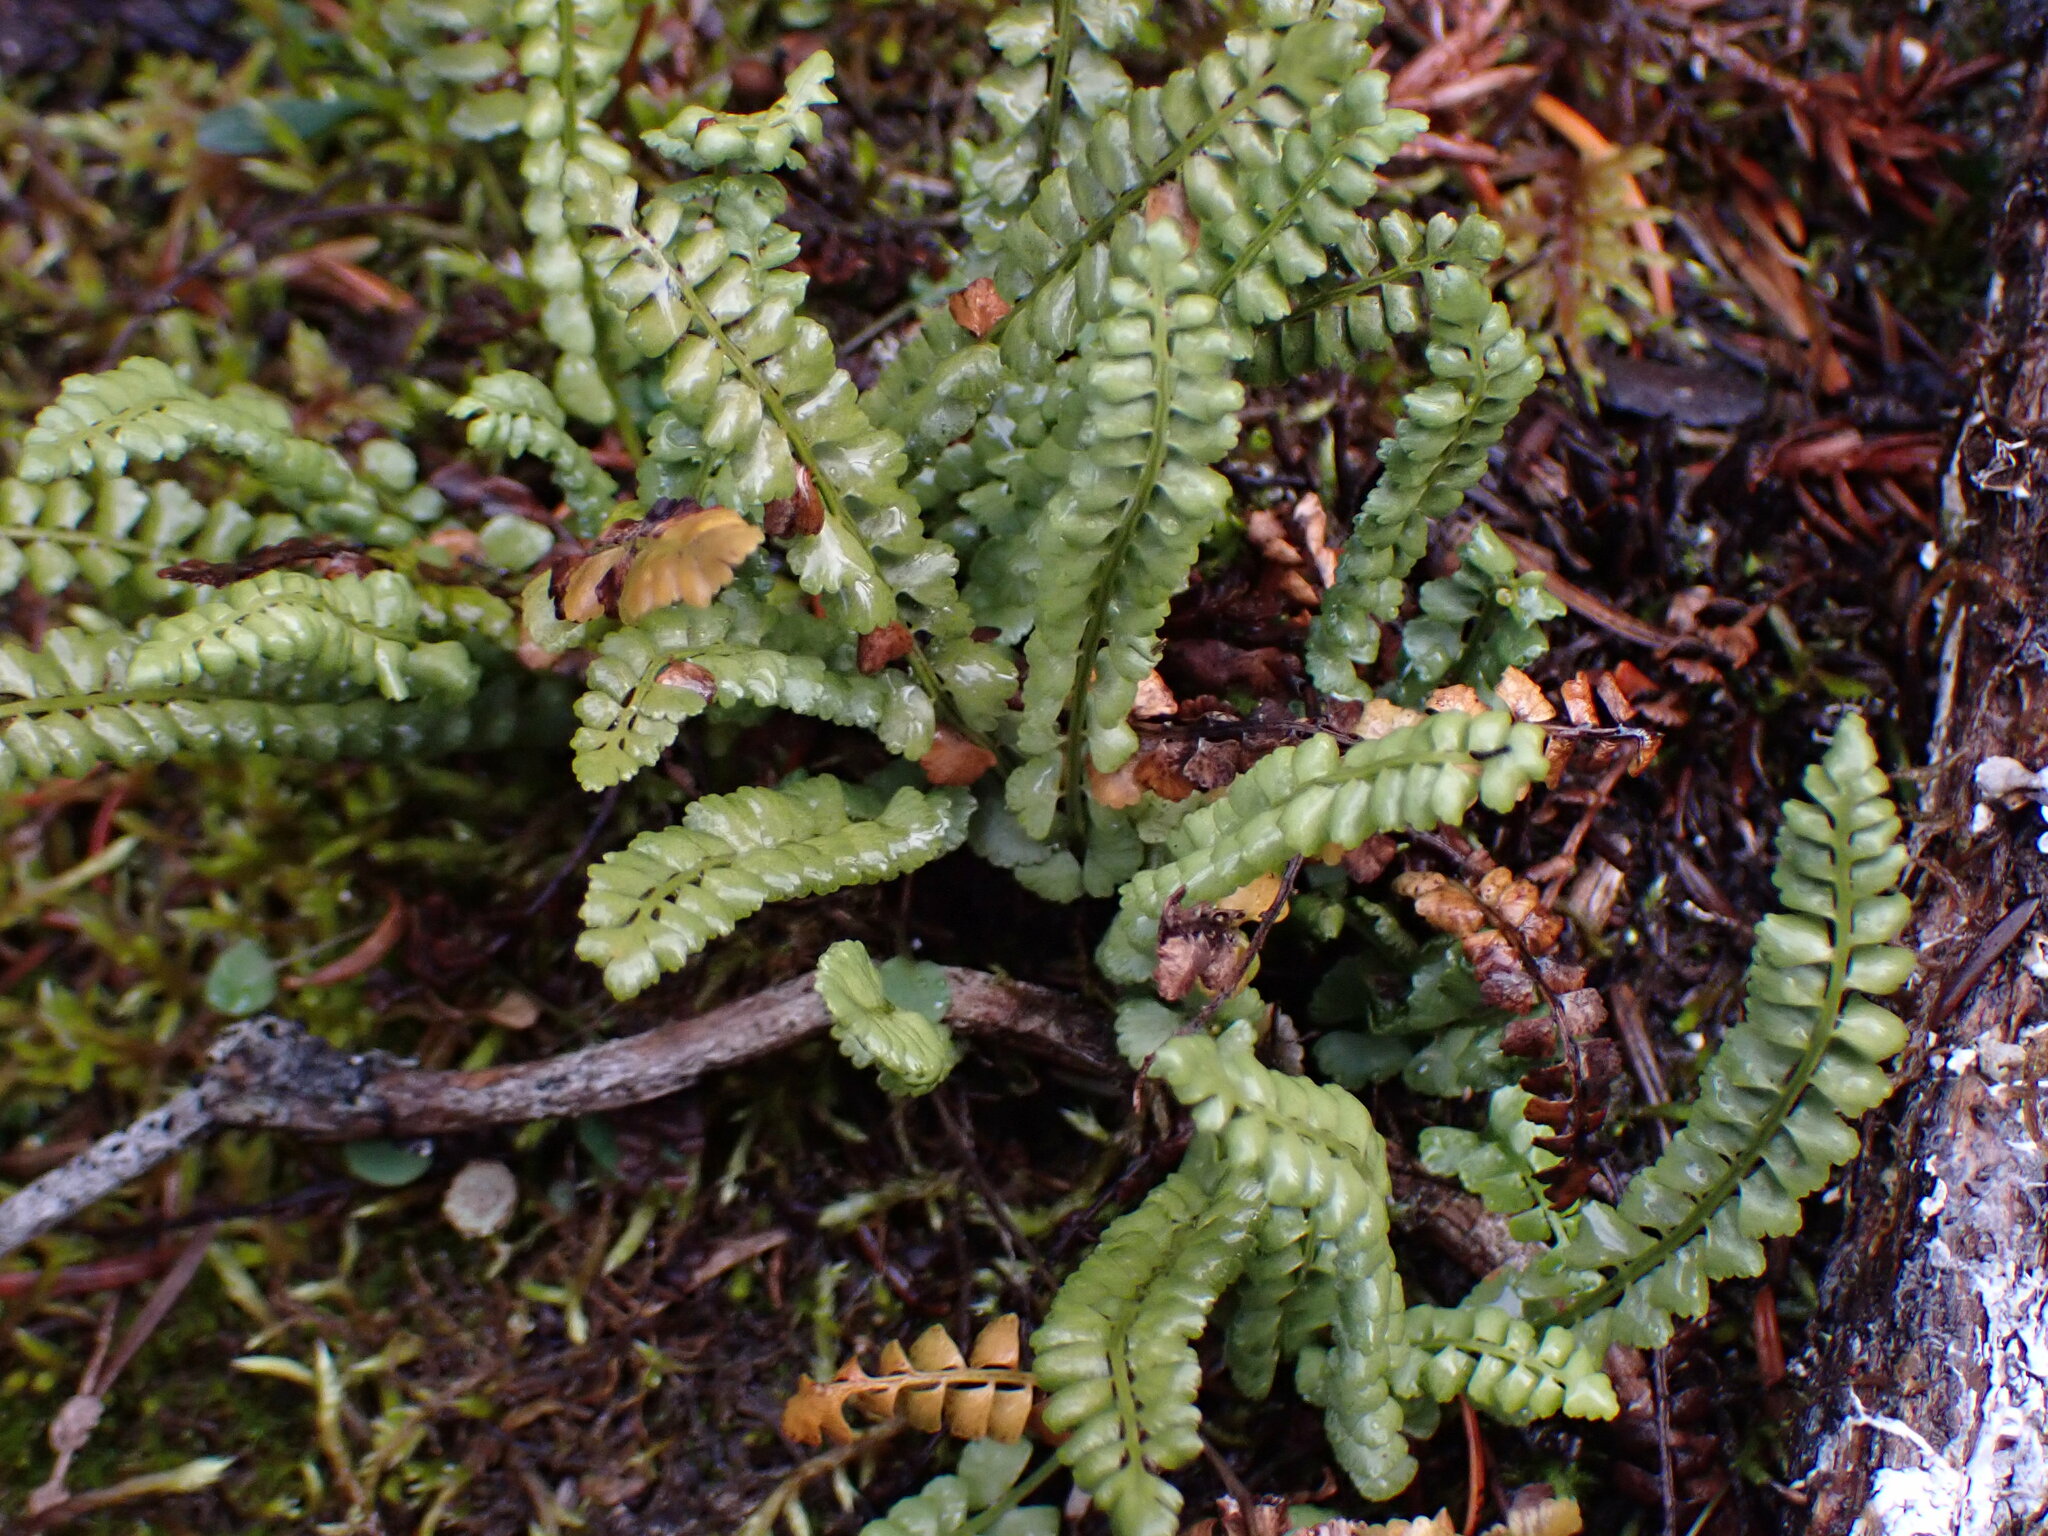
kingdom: Plantae
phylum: Tracheophyta
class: Polypodiopsida
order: Polypodiales
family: Aspleniaceae
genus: Asplenium
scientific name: Asplenium viride
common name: Green spleenwort
